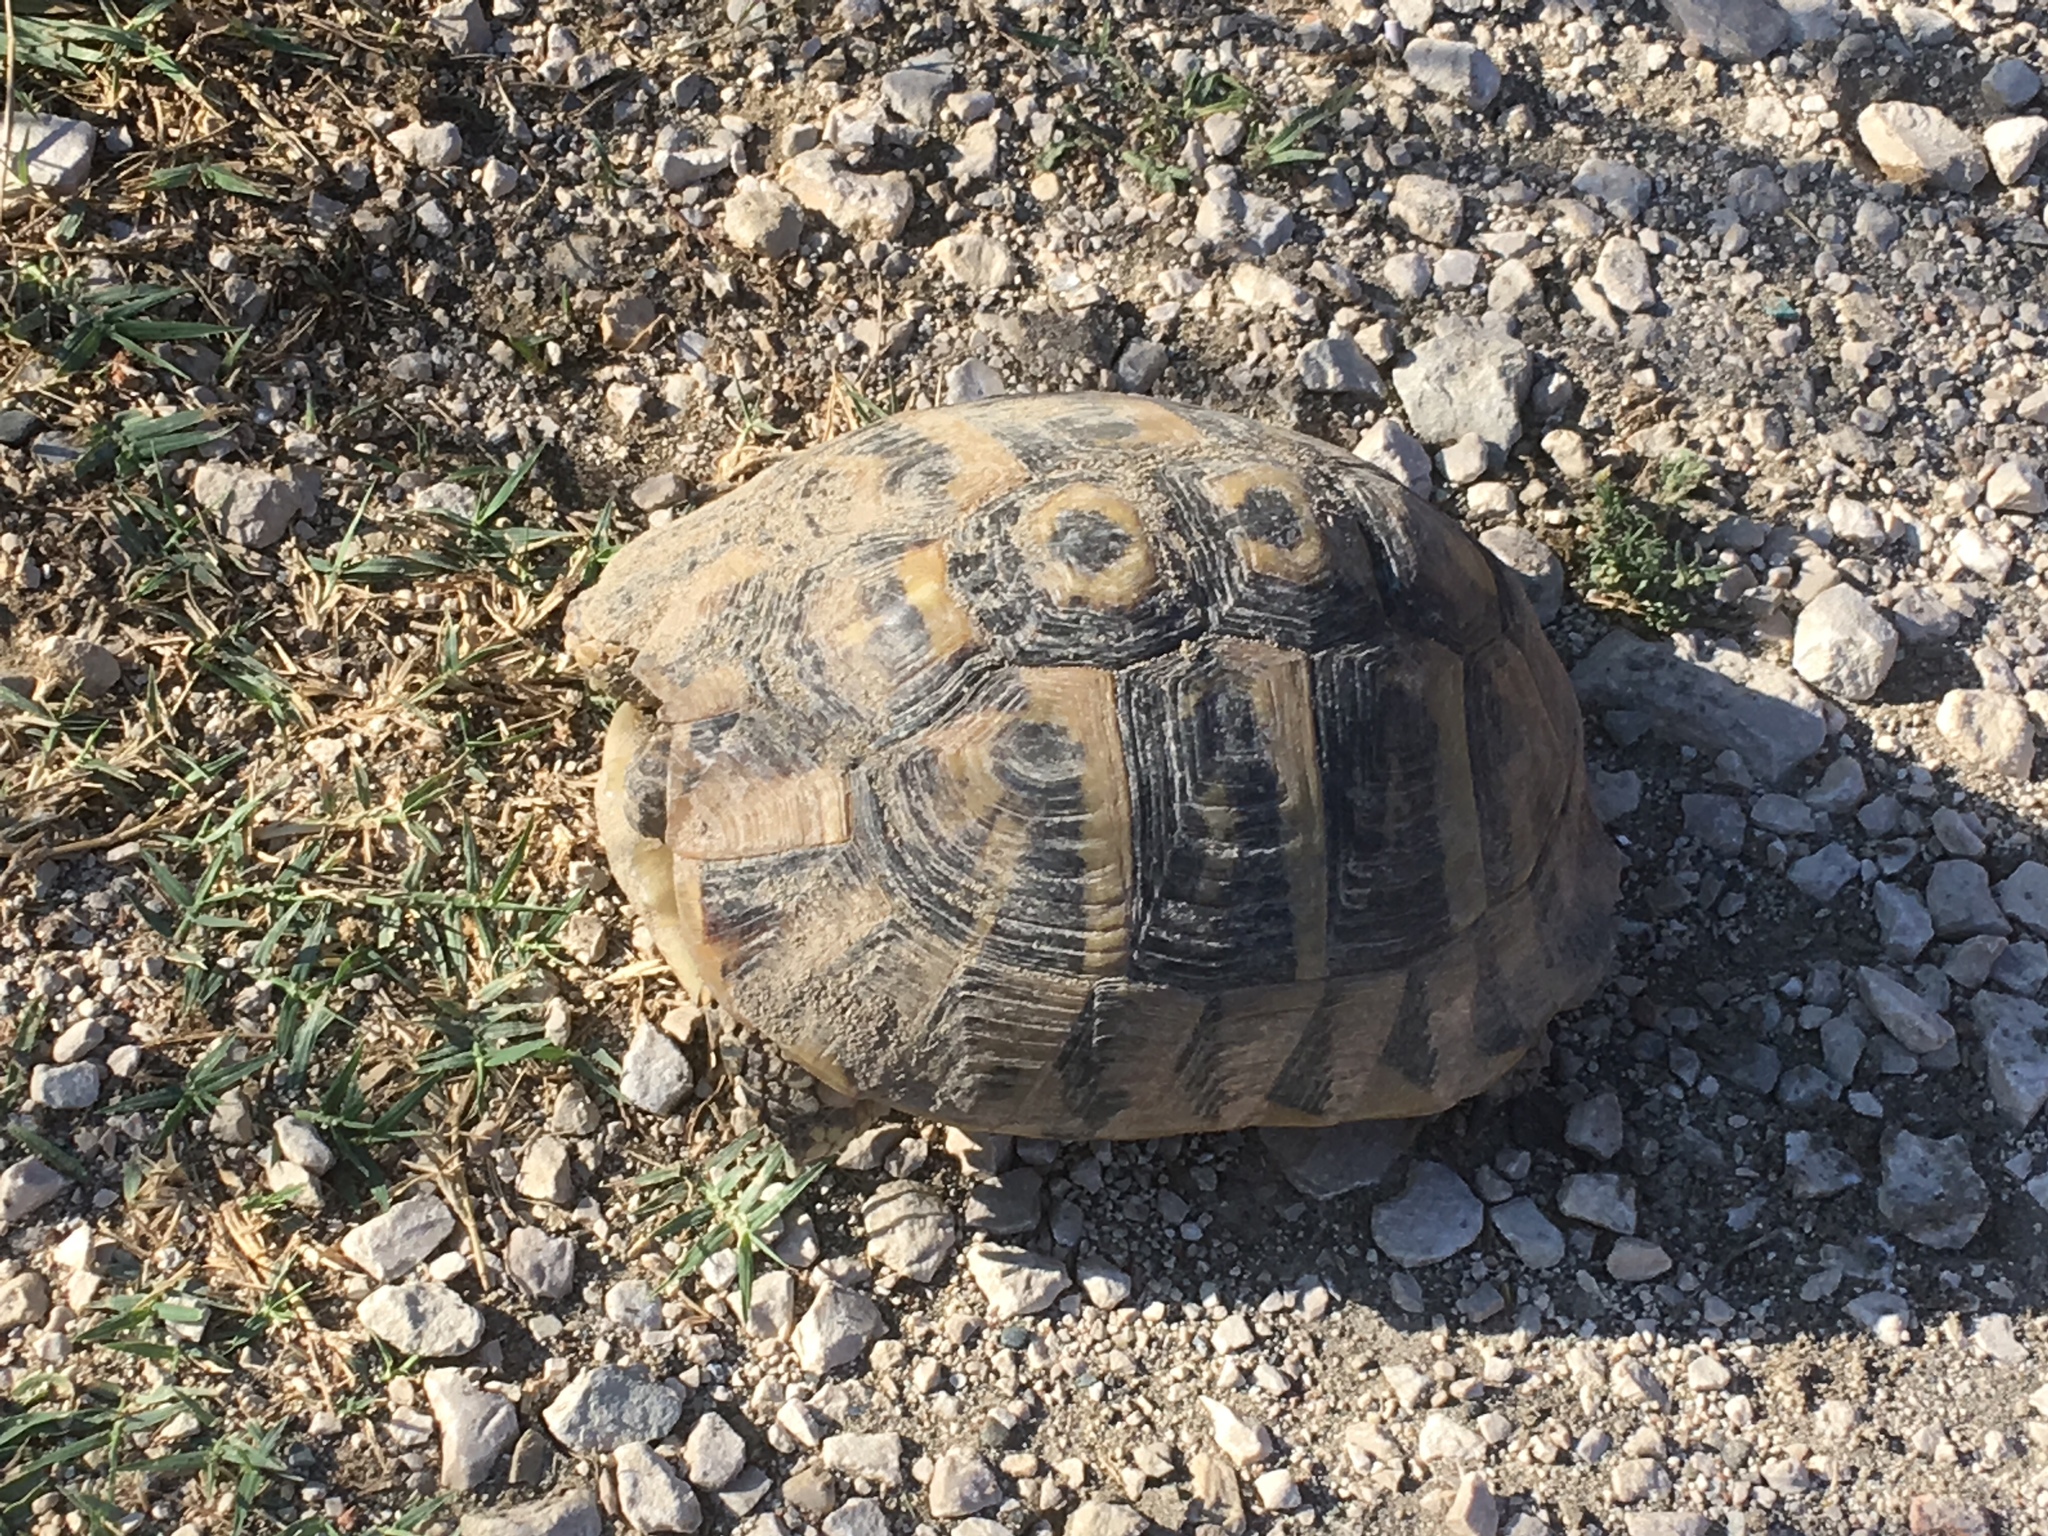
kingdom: Animalia
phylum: Chordata
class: Testudines
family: Testudinidae
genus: Testudo
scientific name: Testudo hermanni
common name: Hermann's tortoise
